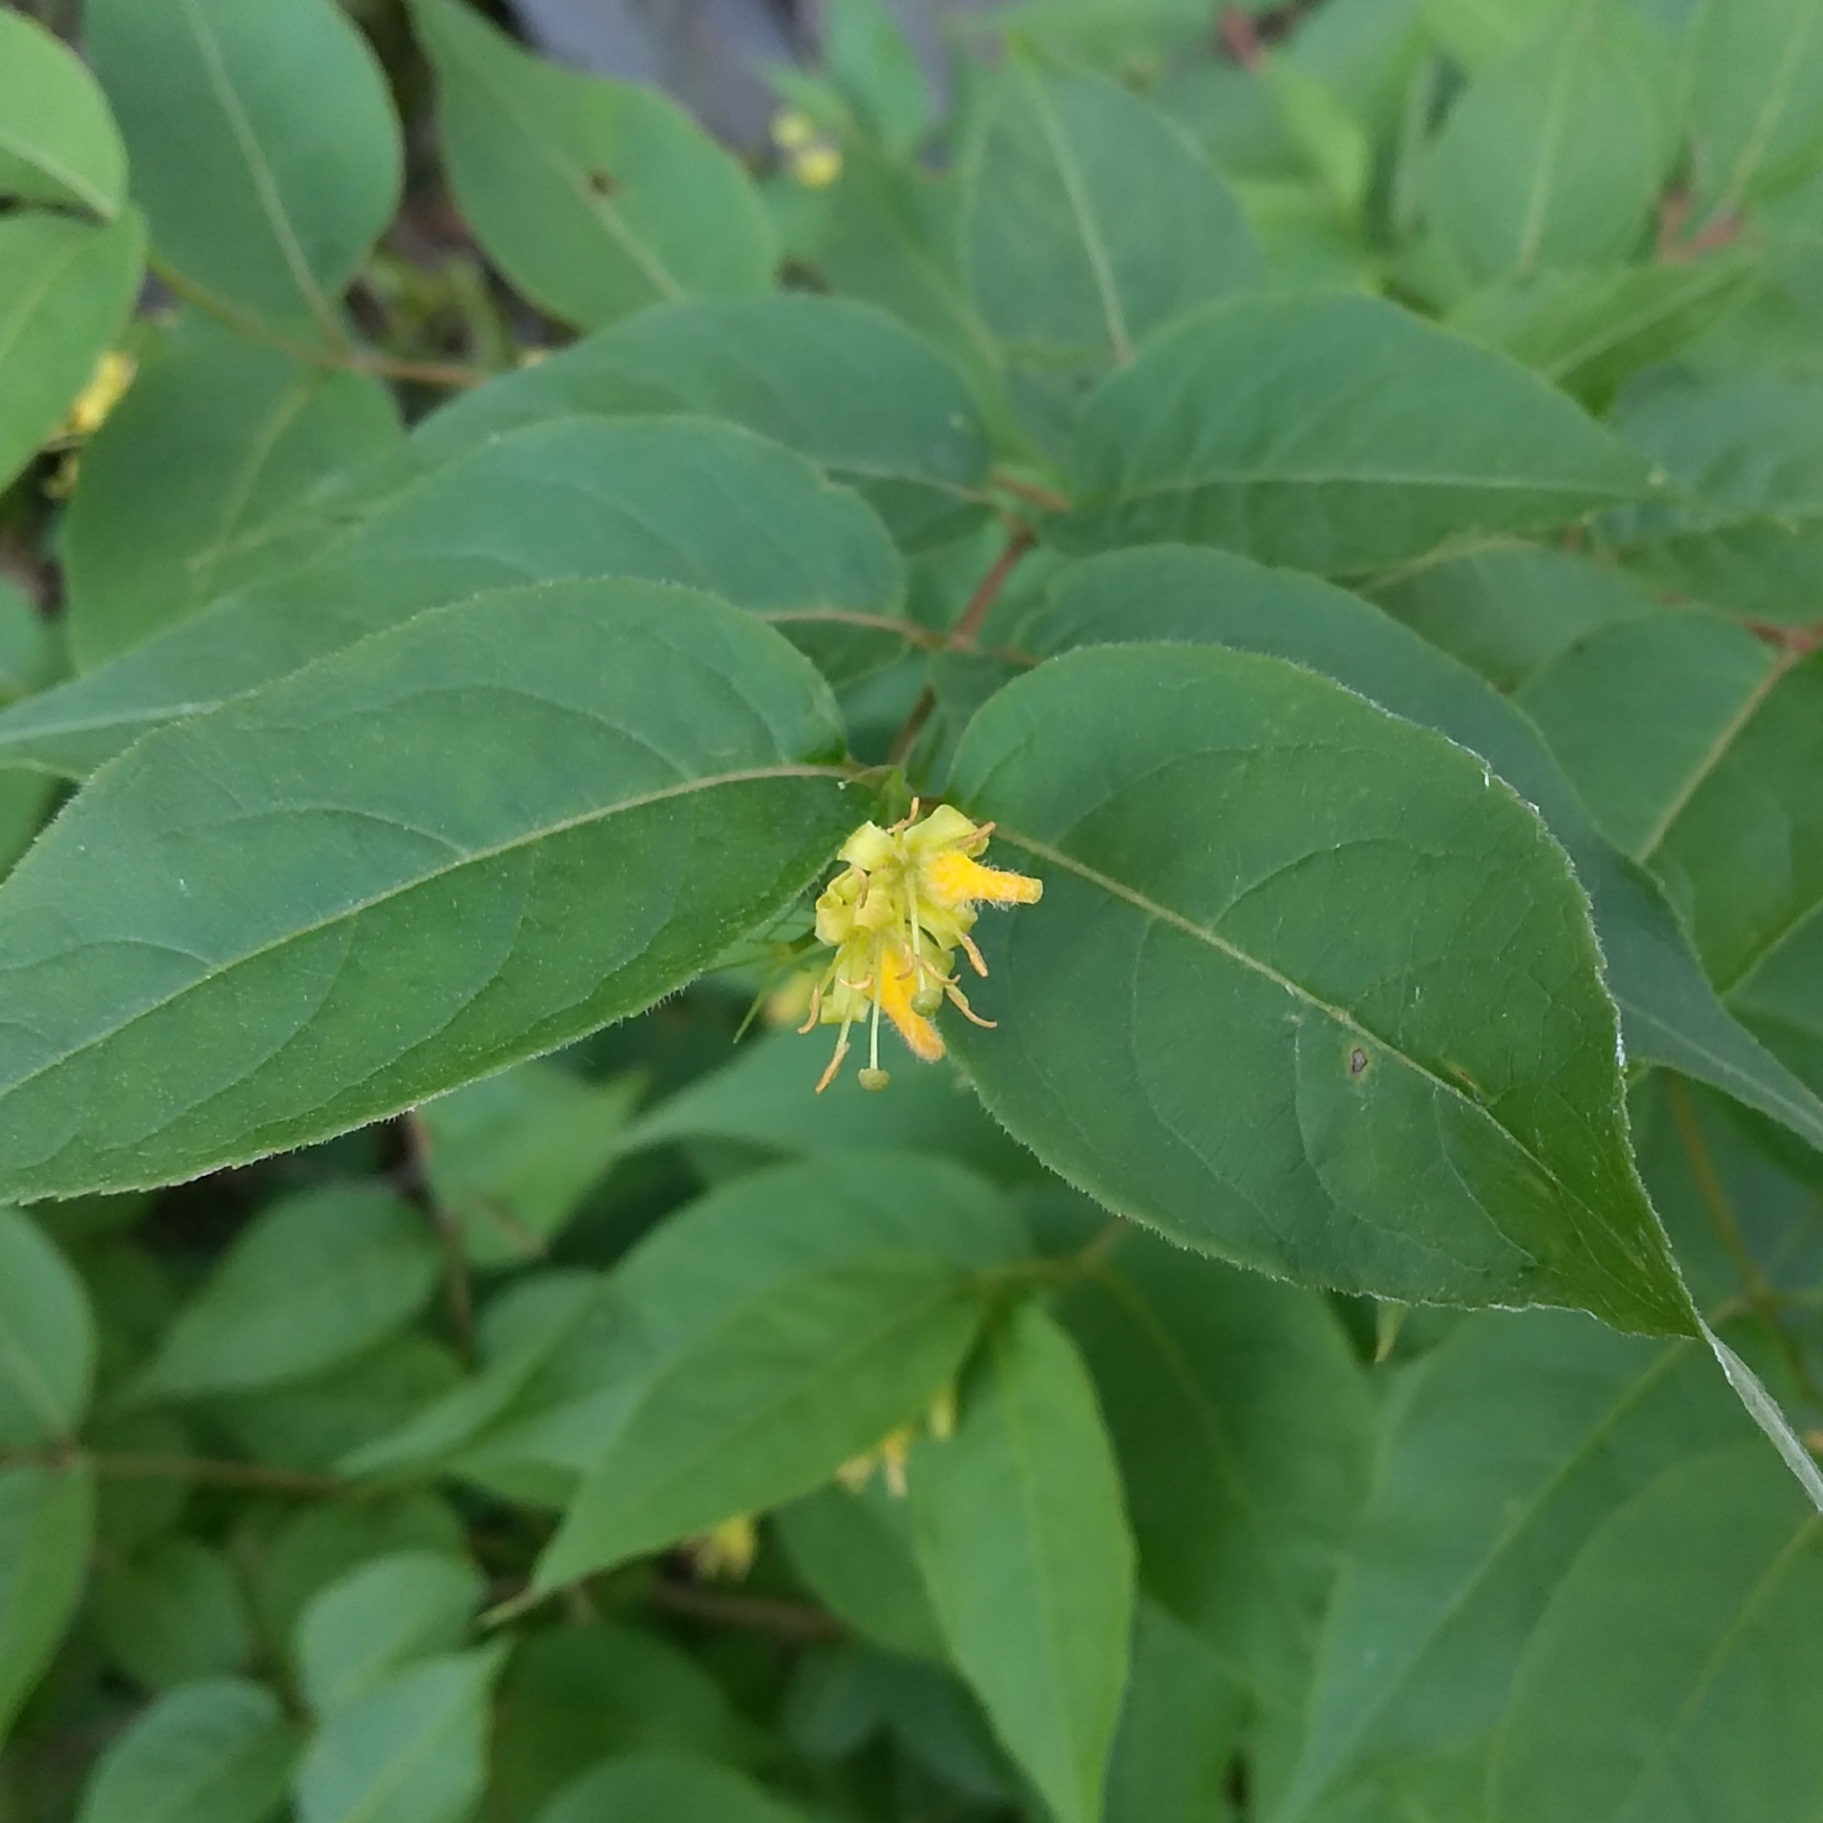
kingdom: Plantae
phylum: Tracheophyta
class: Magnoliopsida
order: Dipsacales
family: Caprifoliaceae
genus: Diervilla
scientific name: Diervilla lonicera
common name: Bush-honeysuckle
